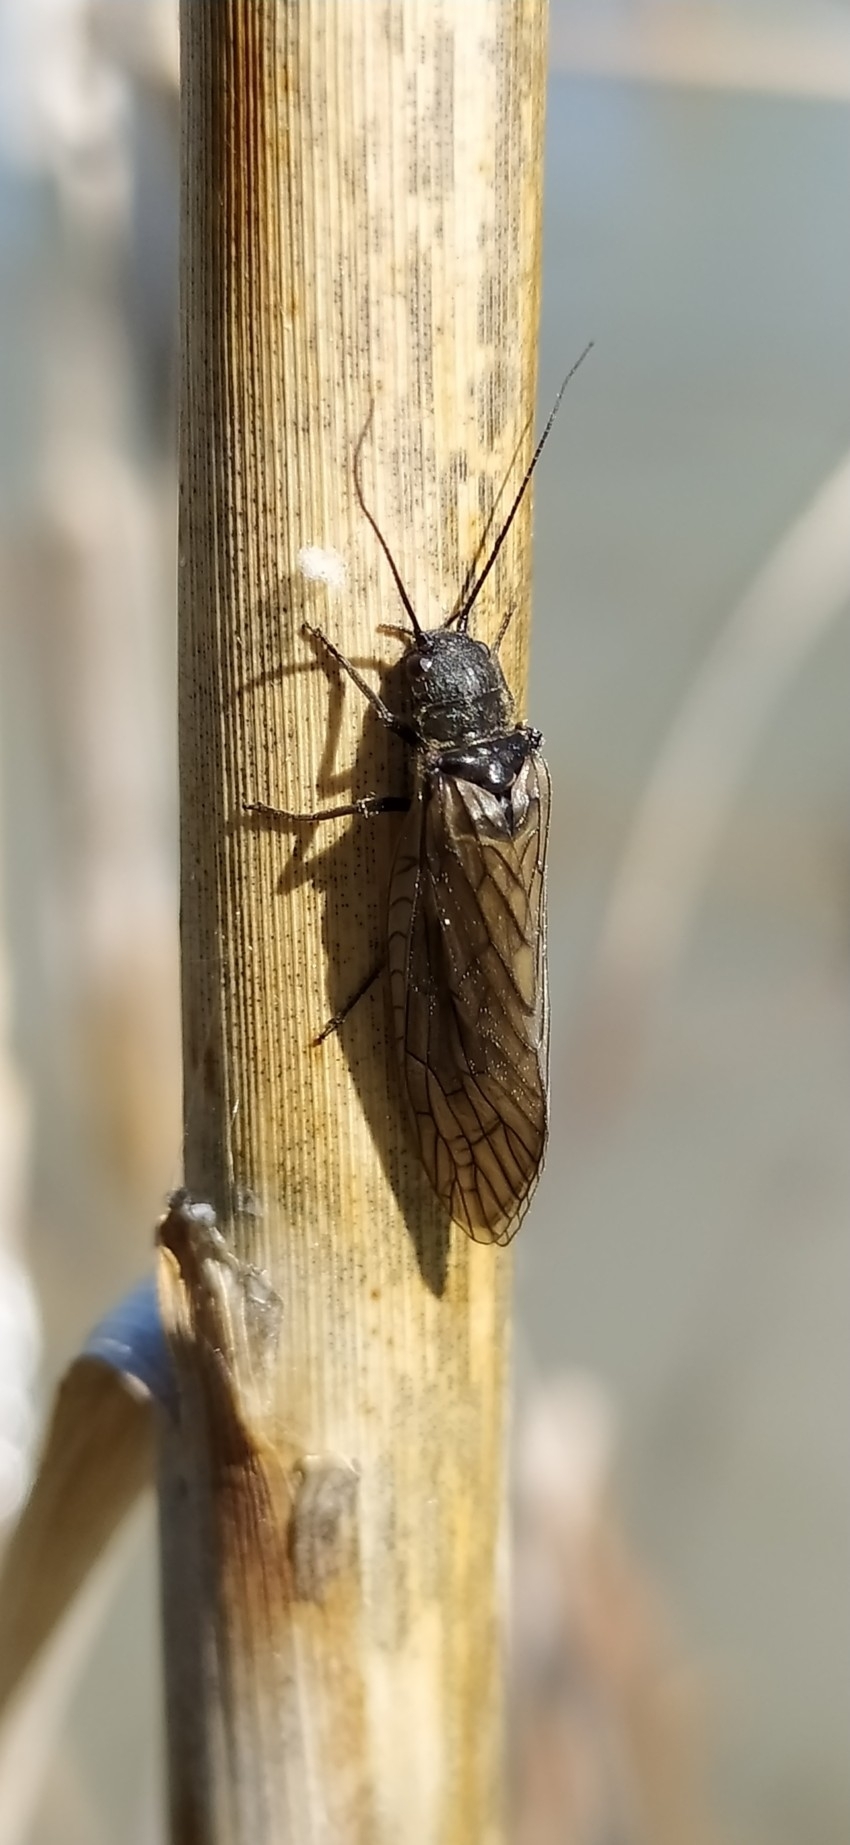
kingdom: Animalia
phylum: Arthropoda
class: Insecta
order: Megaloptera
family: Sialidae
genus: Sialis
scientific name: Sialis
